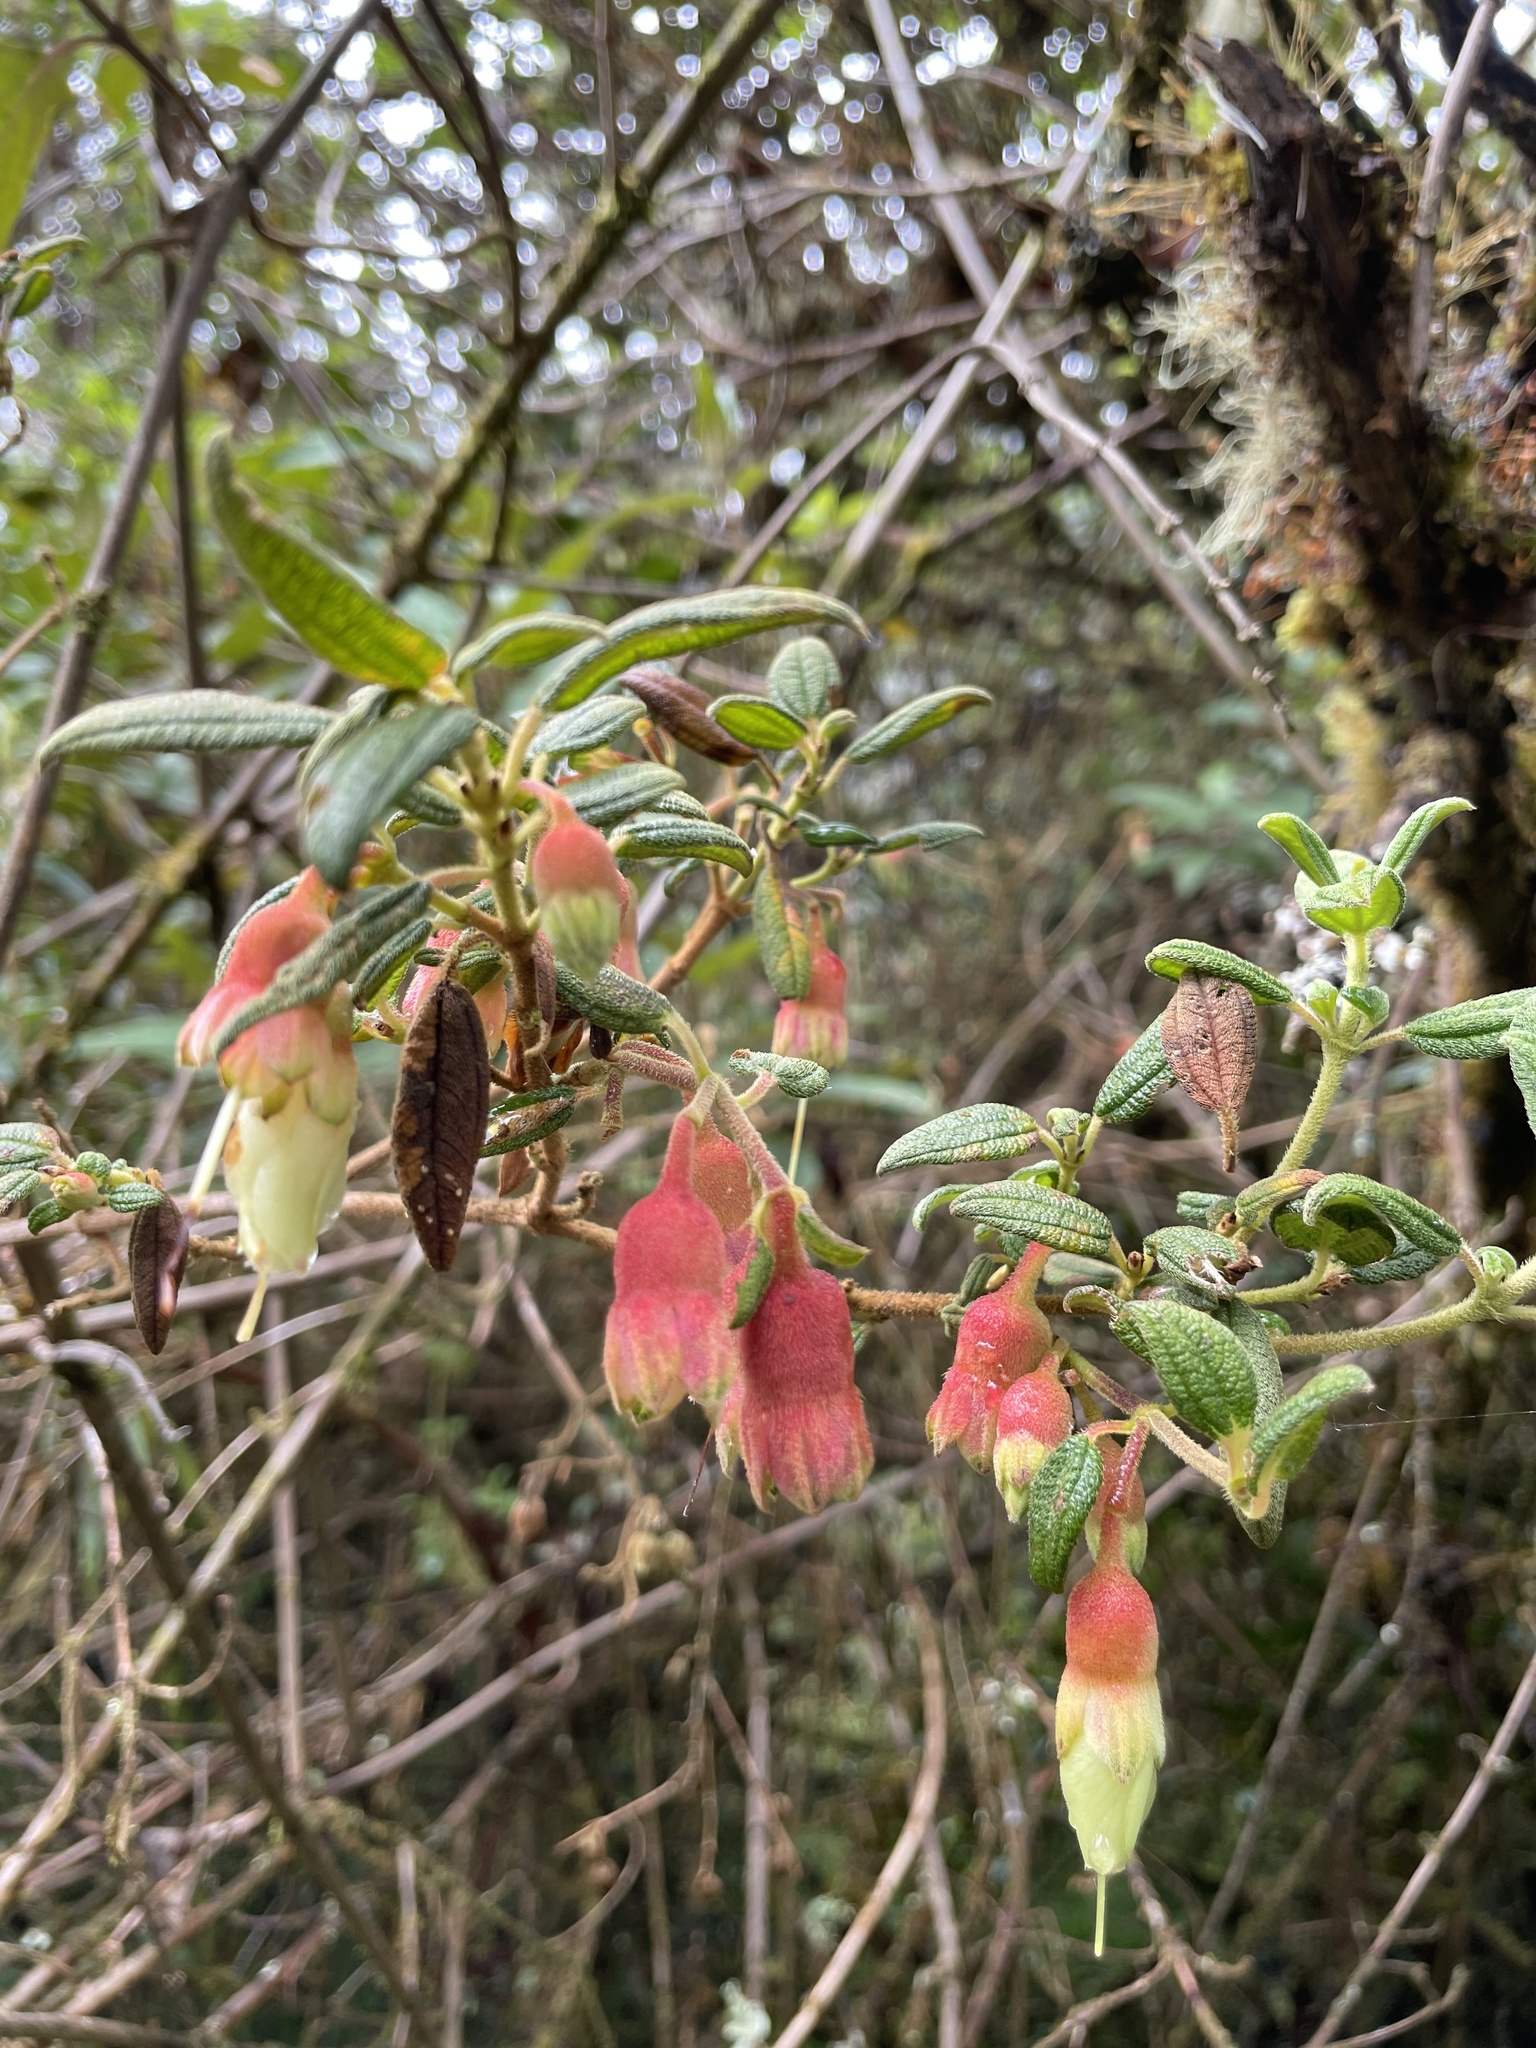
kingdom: Plantae
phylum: Tracheophyta
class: Magnoliopsida
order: Myrtales
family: Melastomataceae
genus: Brachyotum
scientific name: Brachyotum ledifolium
